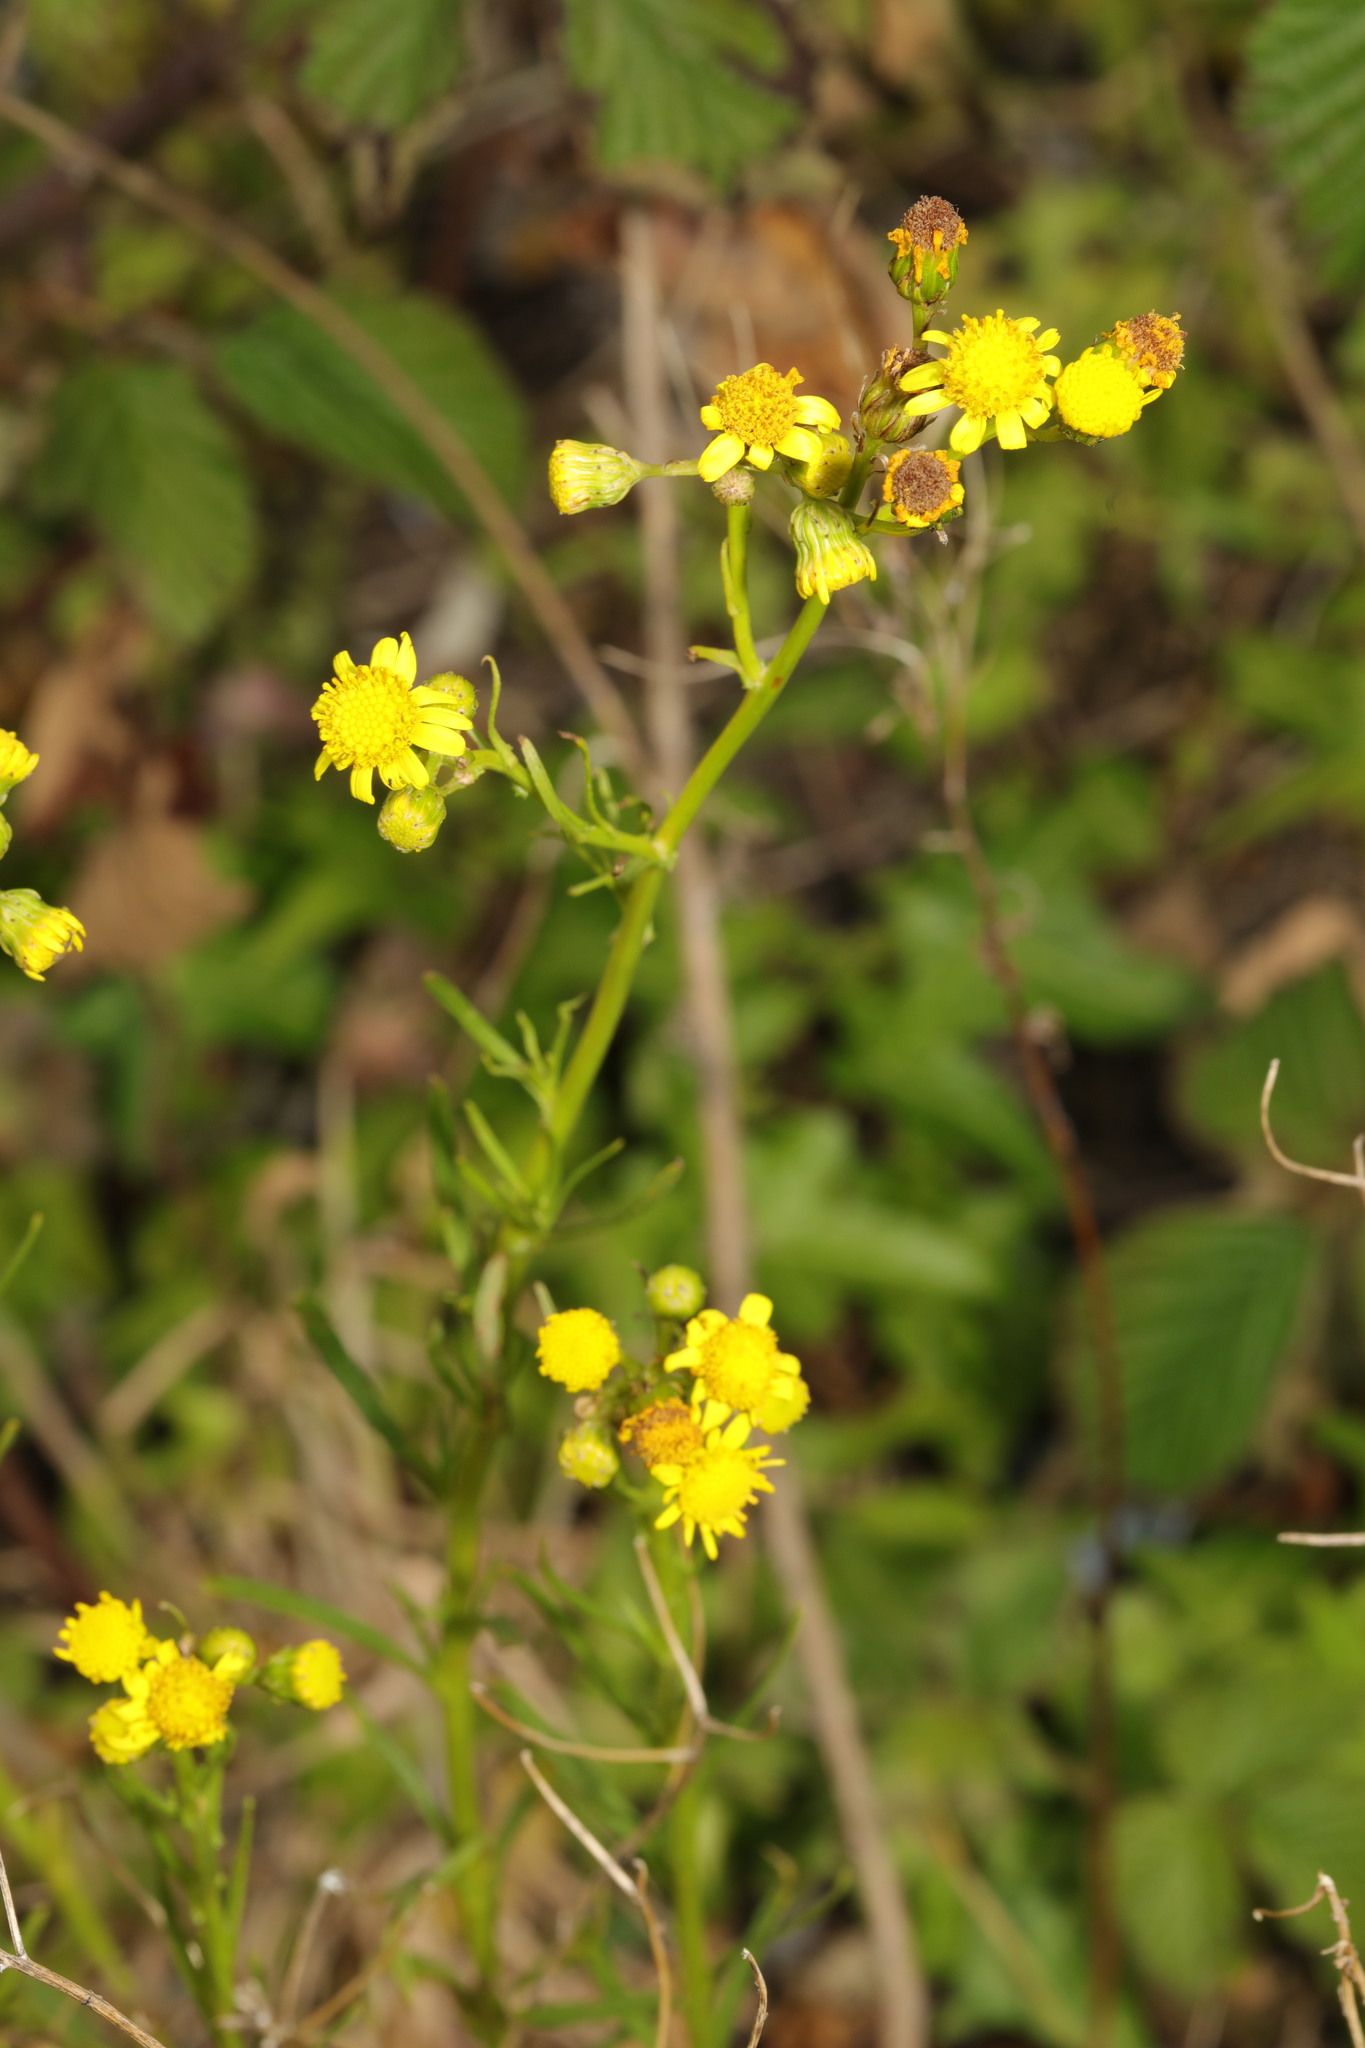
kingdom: Plantae
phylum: Tracheophyta
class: Magnoliopsida
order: Asterales
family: Asteraceae
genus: Senecio
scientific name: Senecio inaequidens
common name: Narrow-leaved ragwort
